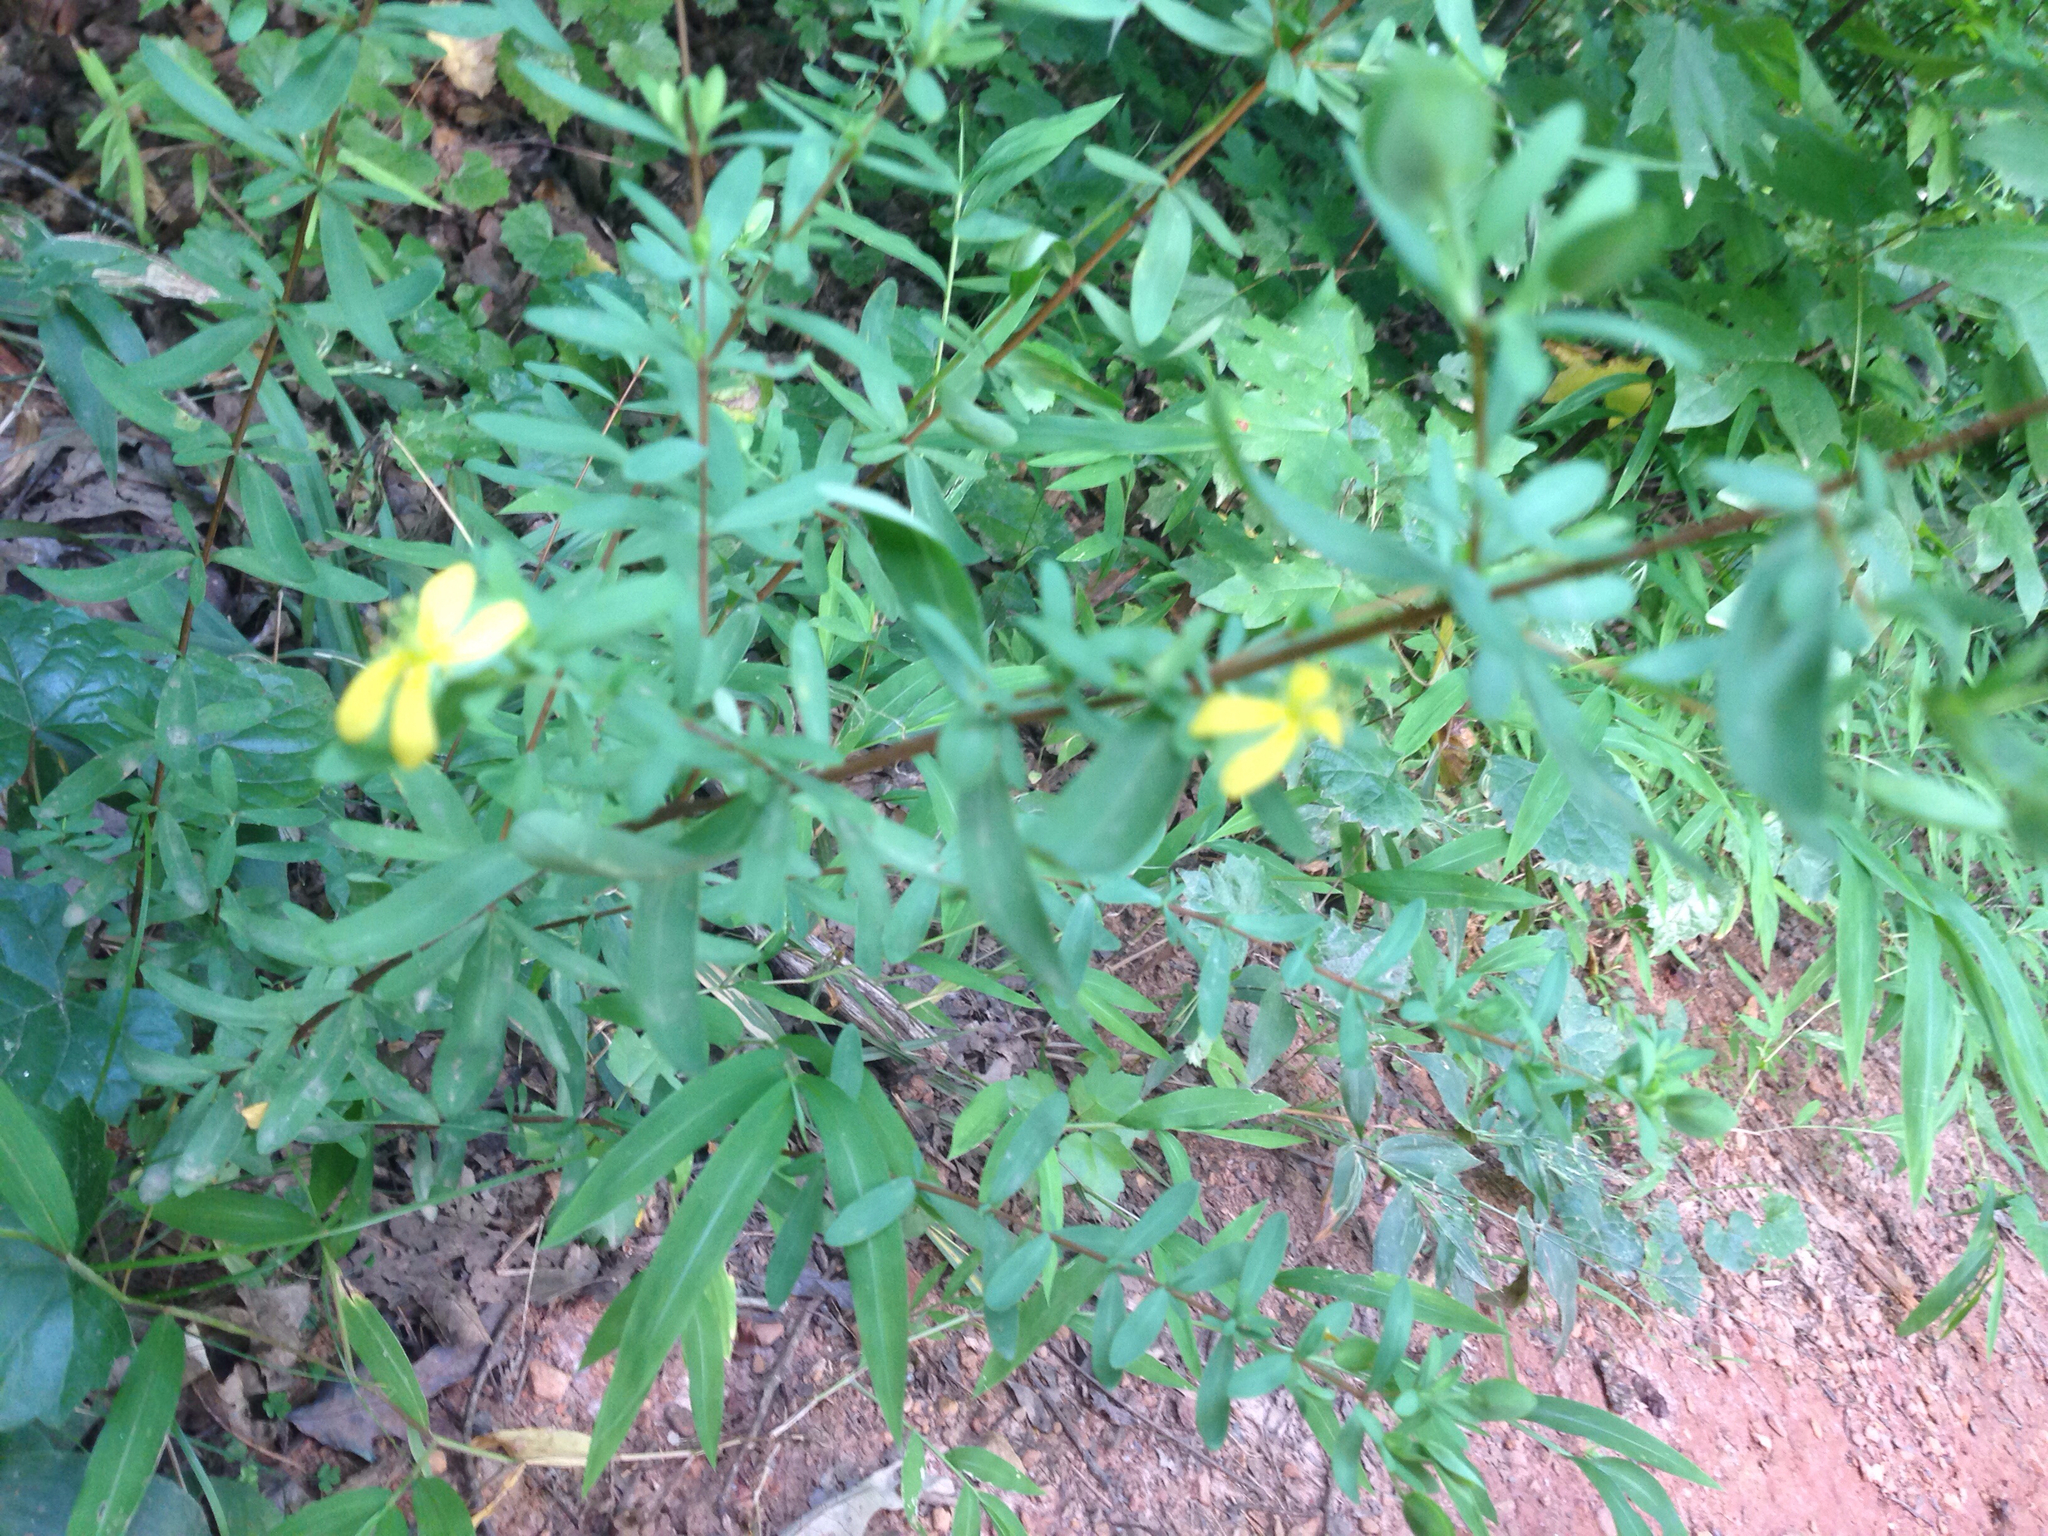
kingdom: Plantae
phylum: Tracheophyta
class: Magnoliopsida
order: Malpighiales
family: Hypericaceae
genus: Hypericum
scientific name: Hypericum hypericoides
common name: St. andrew's cross
